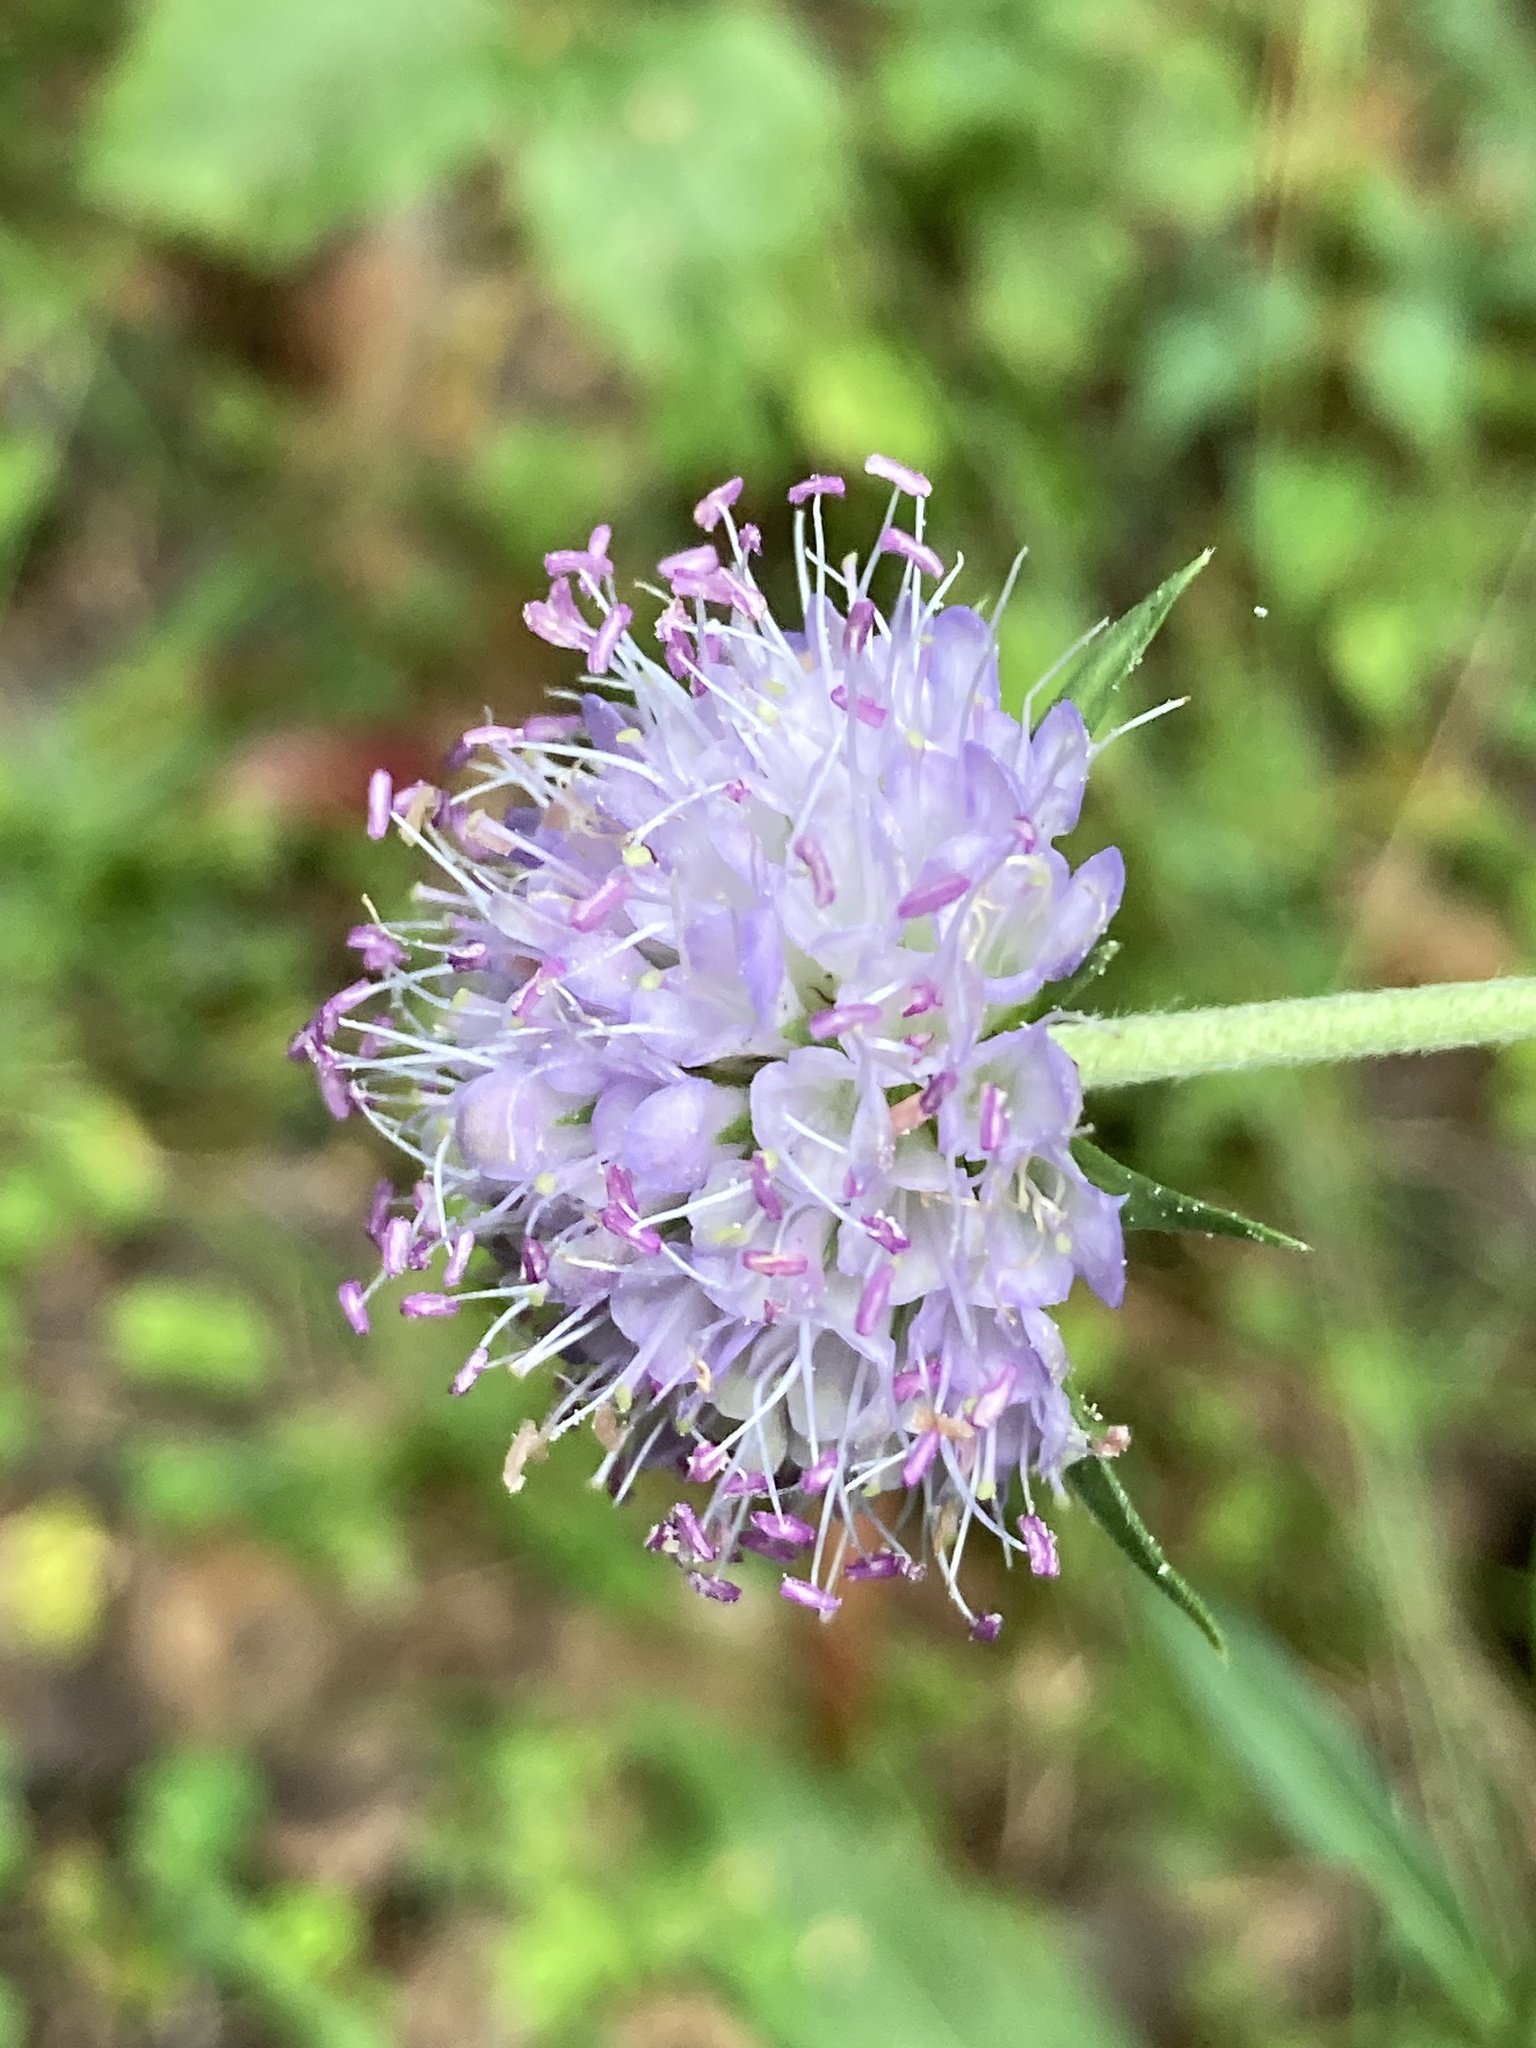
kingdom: Plantae
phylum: Tracheophyta
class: Magnoliopsida
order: Dipsacales
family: Caprifoliaceae
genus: Succisa
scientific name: Succisa pratensis
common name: Devil's-bit
